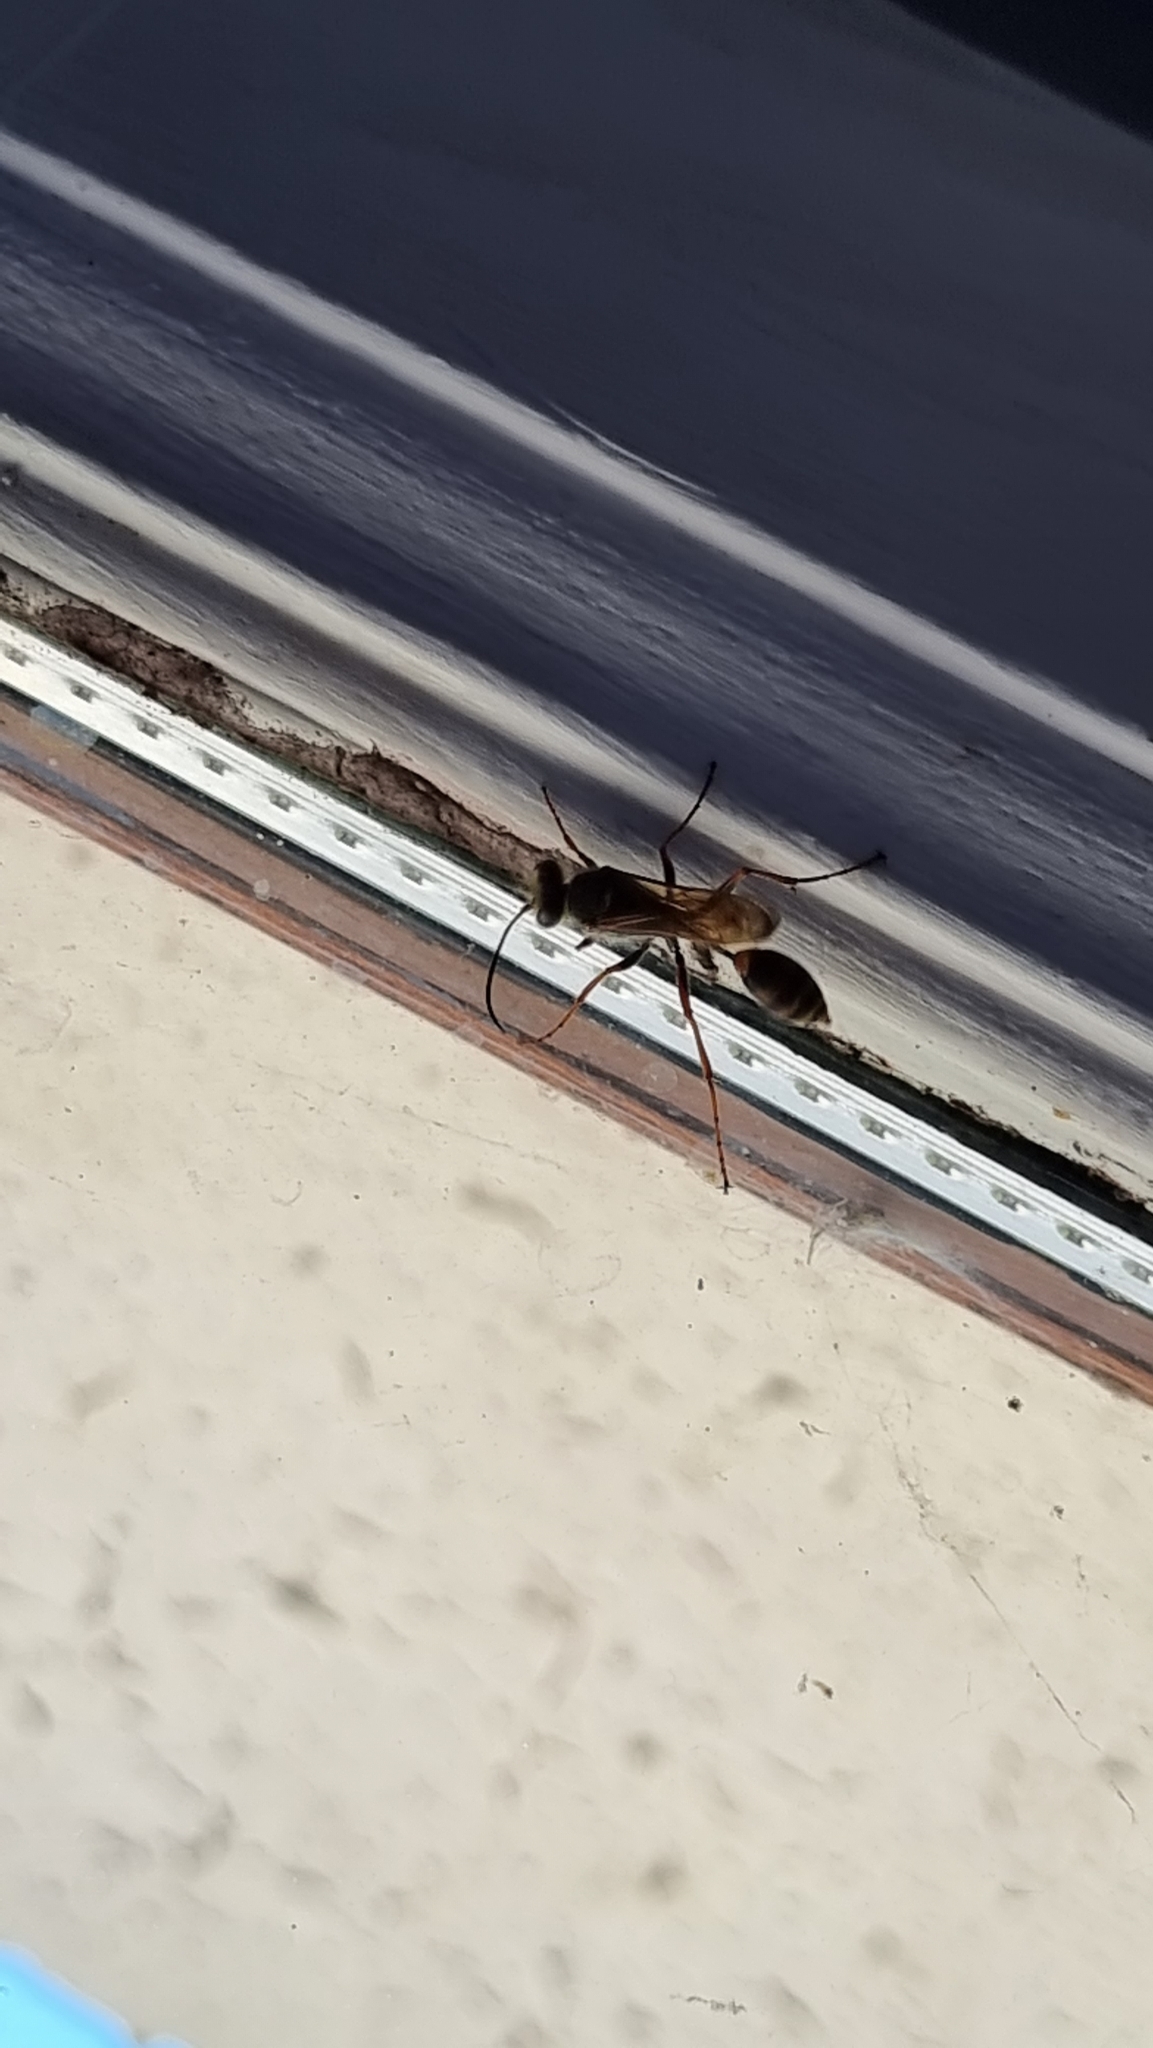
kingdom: Animalia
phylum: Arthropoda
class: Insecta
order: Hymenoptera
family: Sphecidae
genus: Sceliphron
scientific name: Sceliphron curvatum
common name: Pèlopèe
